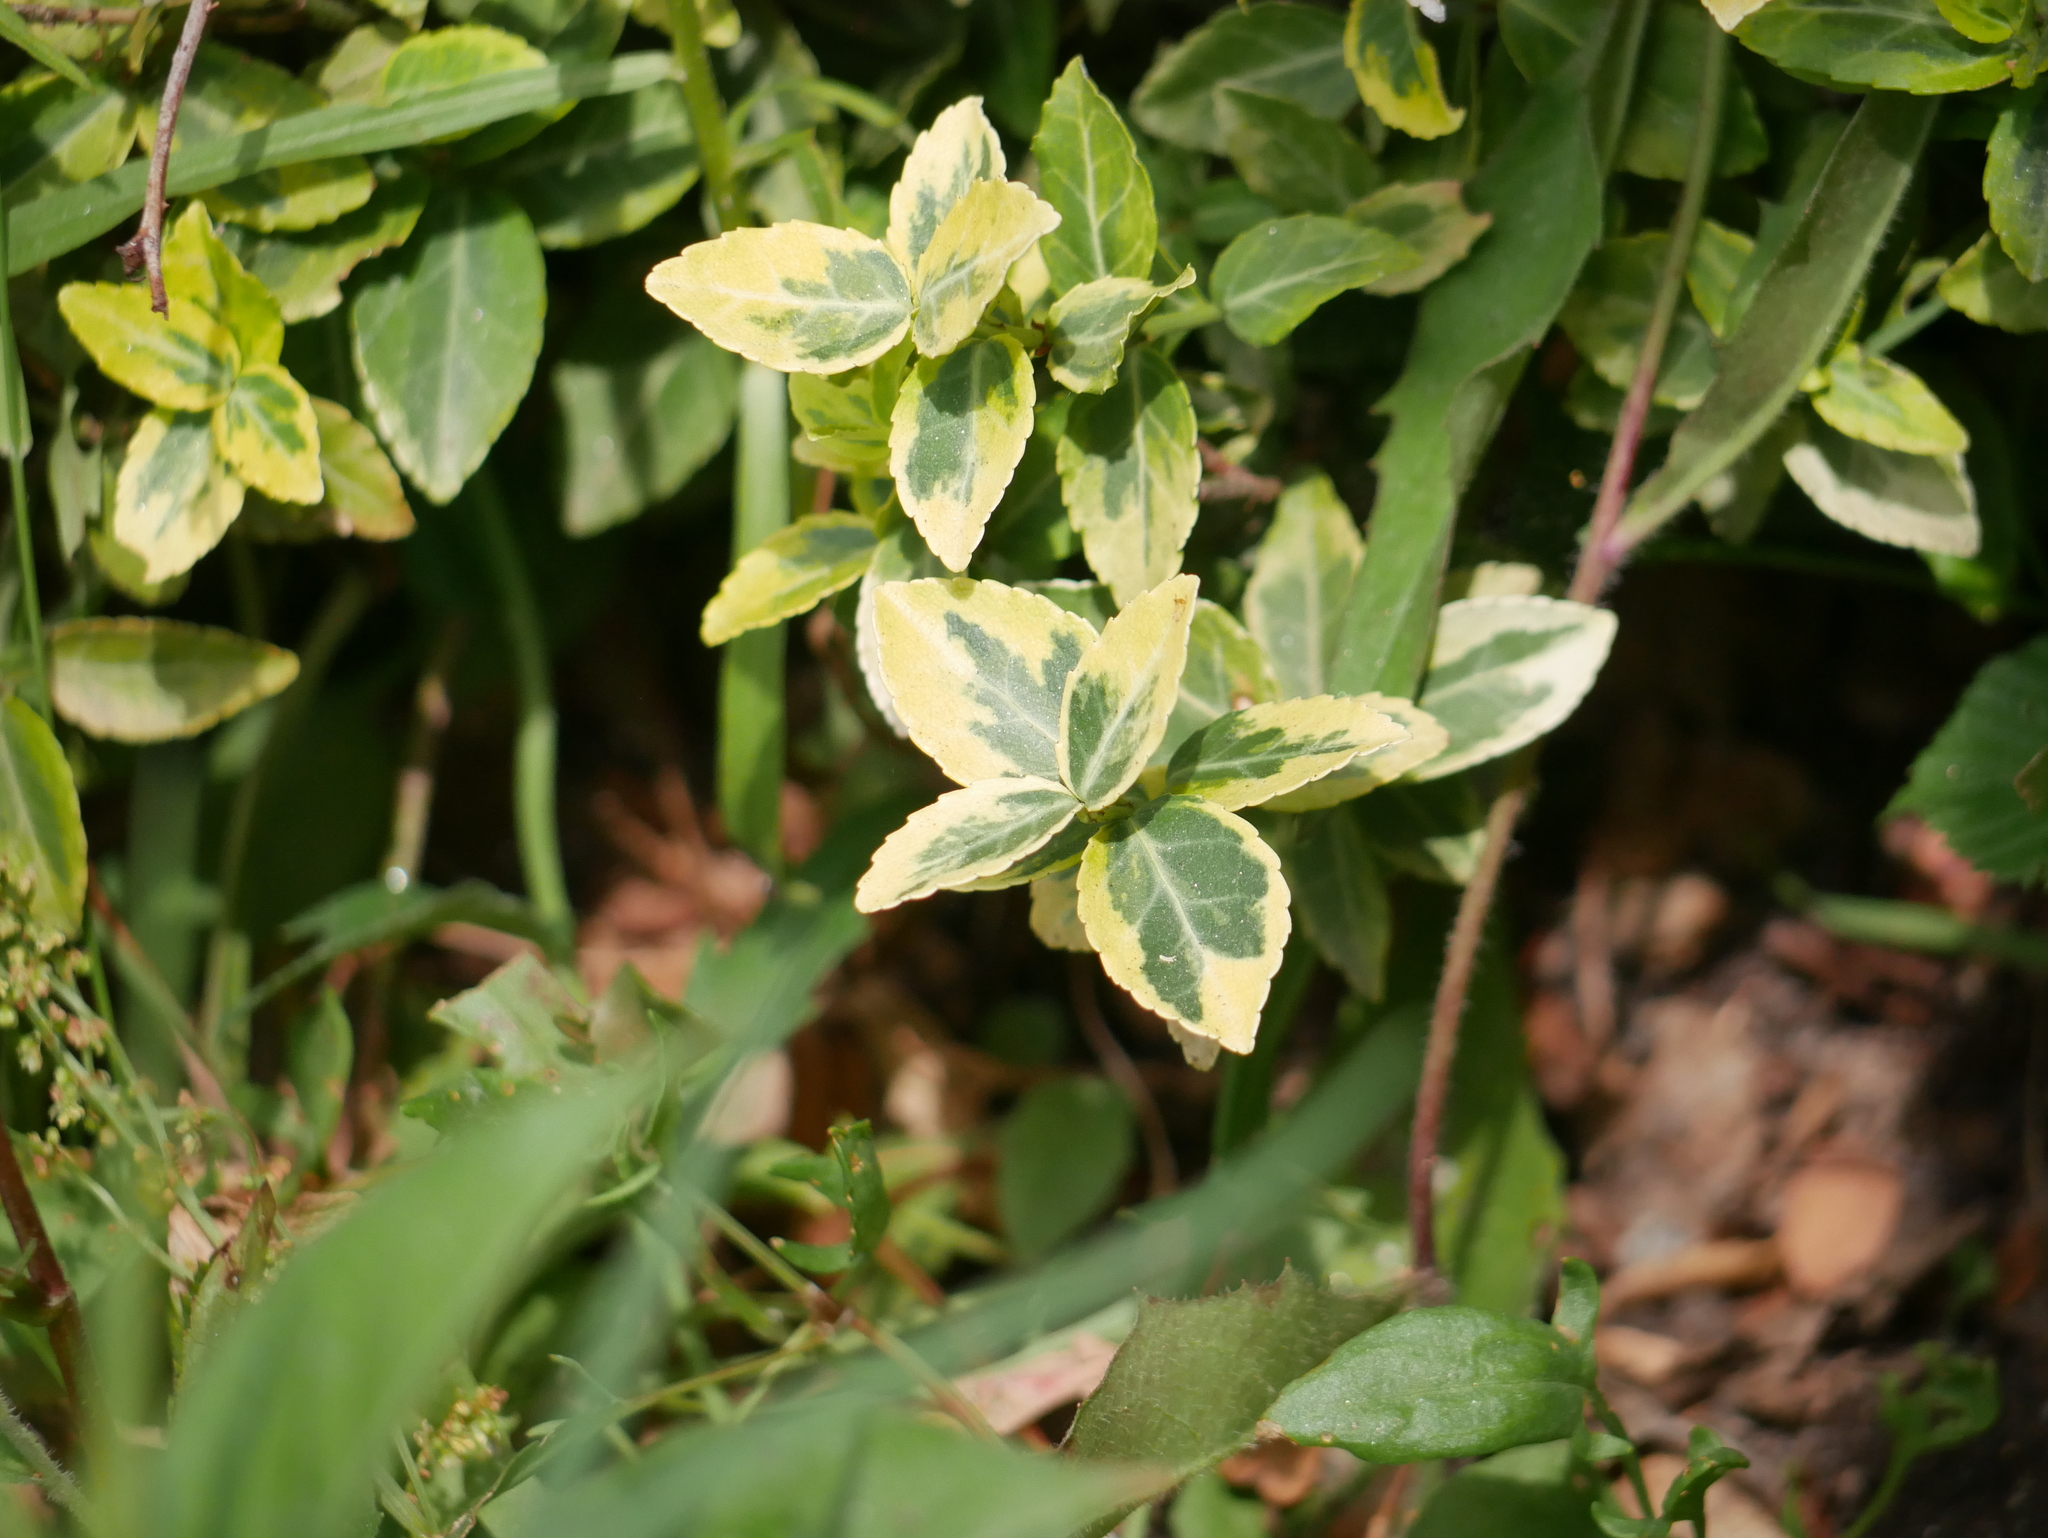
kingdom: Plantae
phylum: Tracheophyta
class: Magnoliopsida
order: Celastrales
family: Celastraceae
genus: Euonymus
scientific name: Euonymus fortunei
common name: Climbing euonymus
